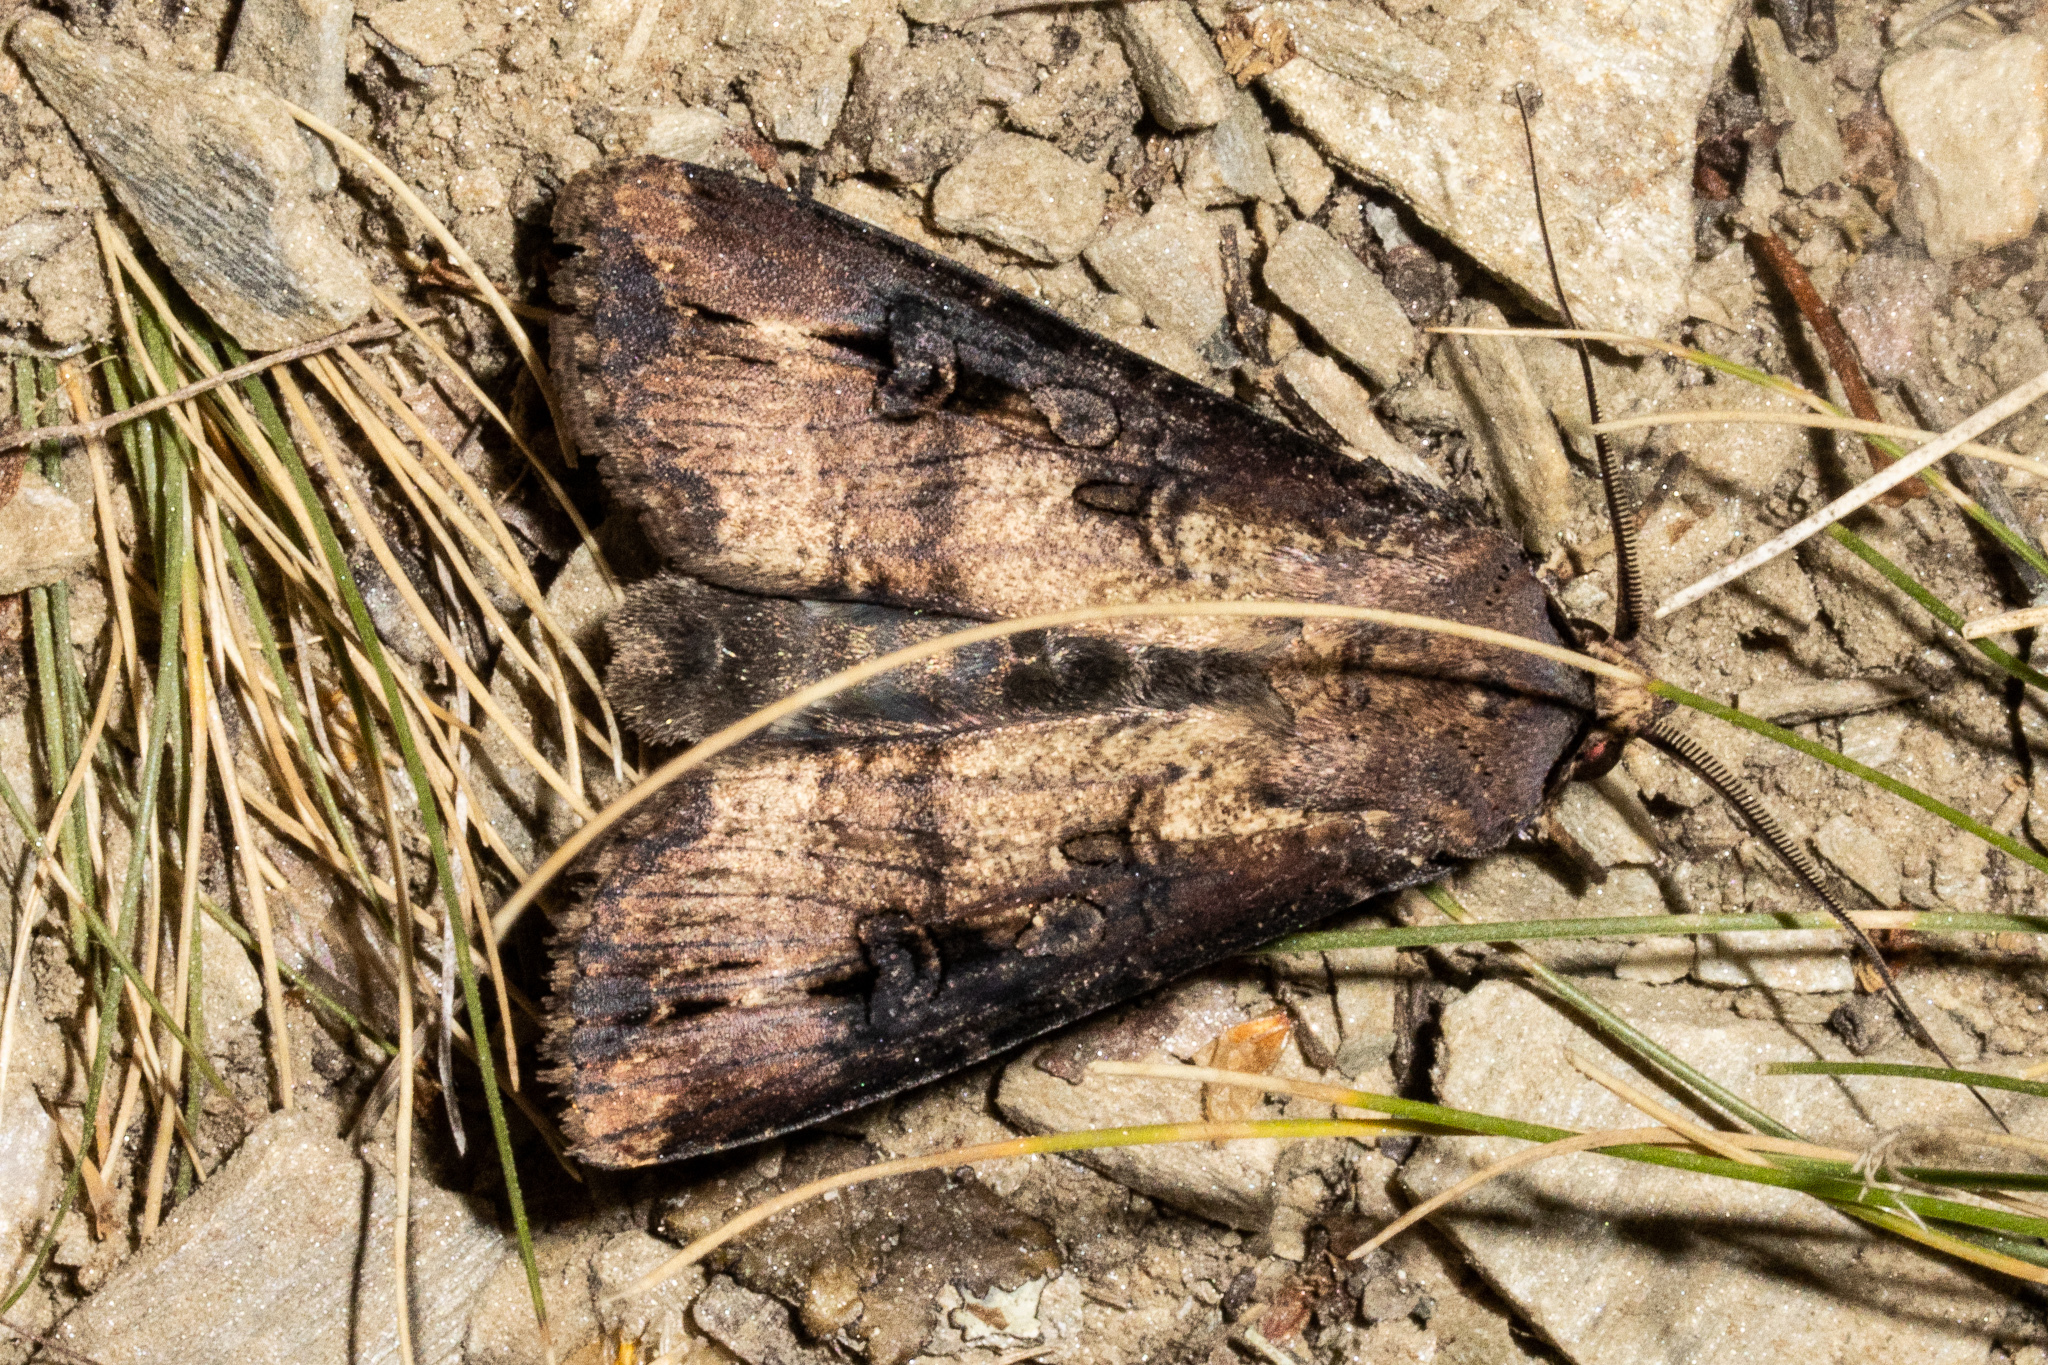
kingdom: Animalia
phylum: Arthropoda
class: Insecta
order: Lepidoptera
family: Noctuidae
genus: Agrotis
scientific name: Agrotis ipsilon
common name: Dark sword-grass
